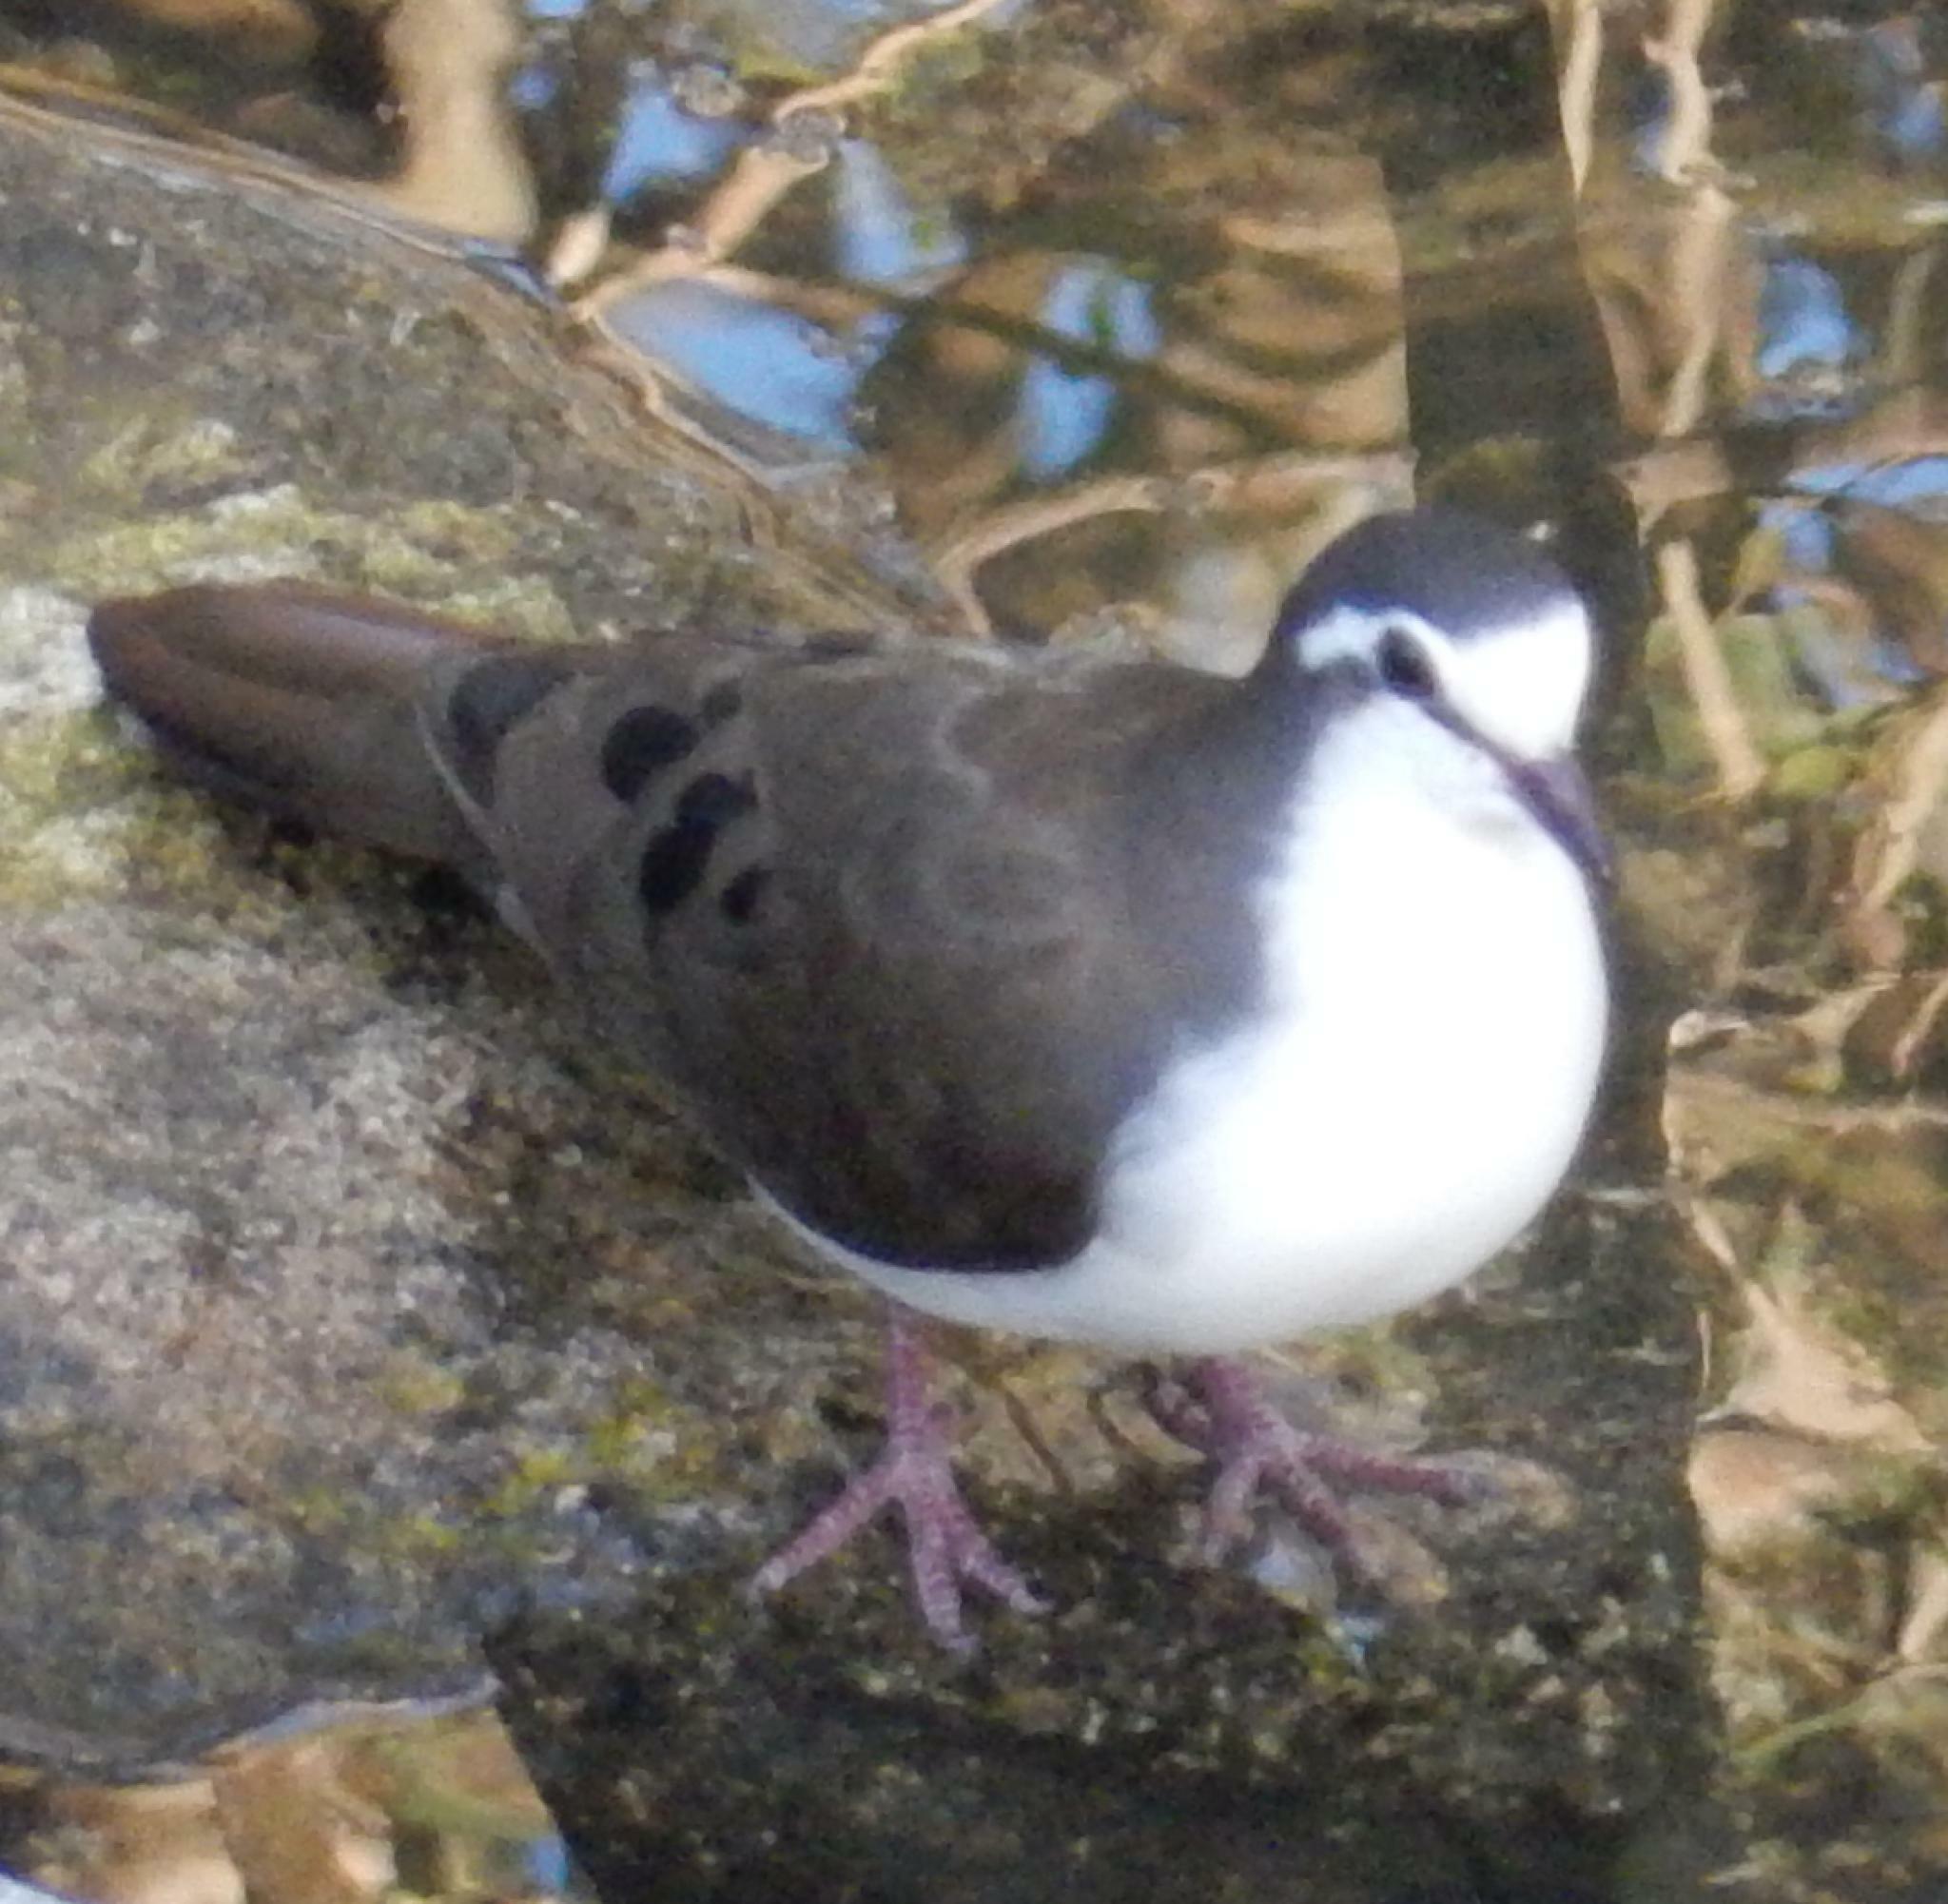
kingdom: Animalia
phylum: Chordata
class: Aves
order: Columbiformes
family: Columbidae
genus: Turtur
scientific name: Turtur tympanistria
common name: Tambourine dove
